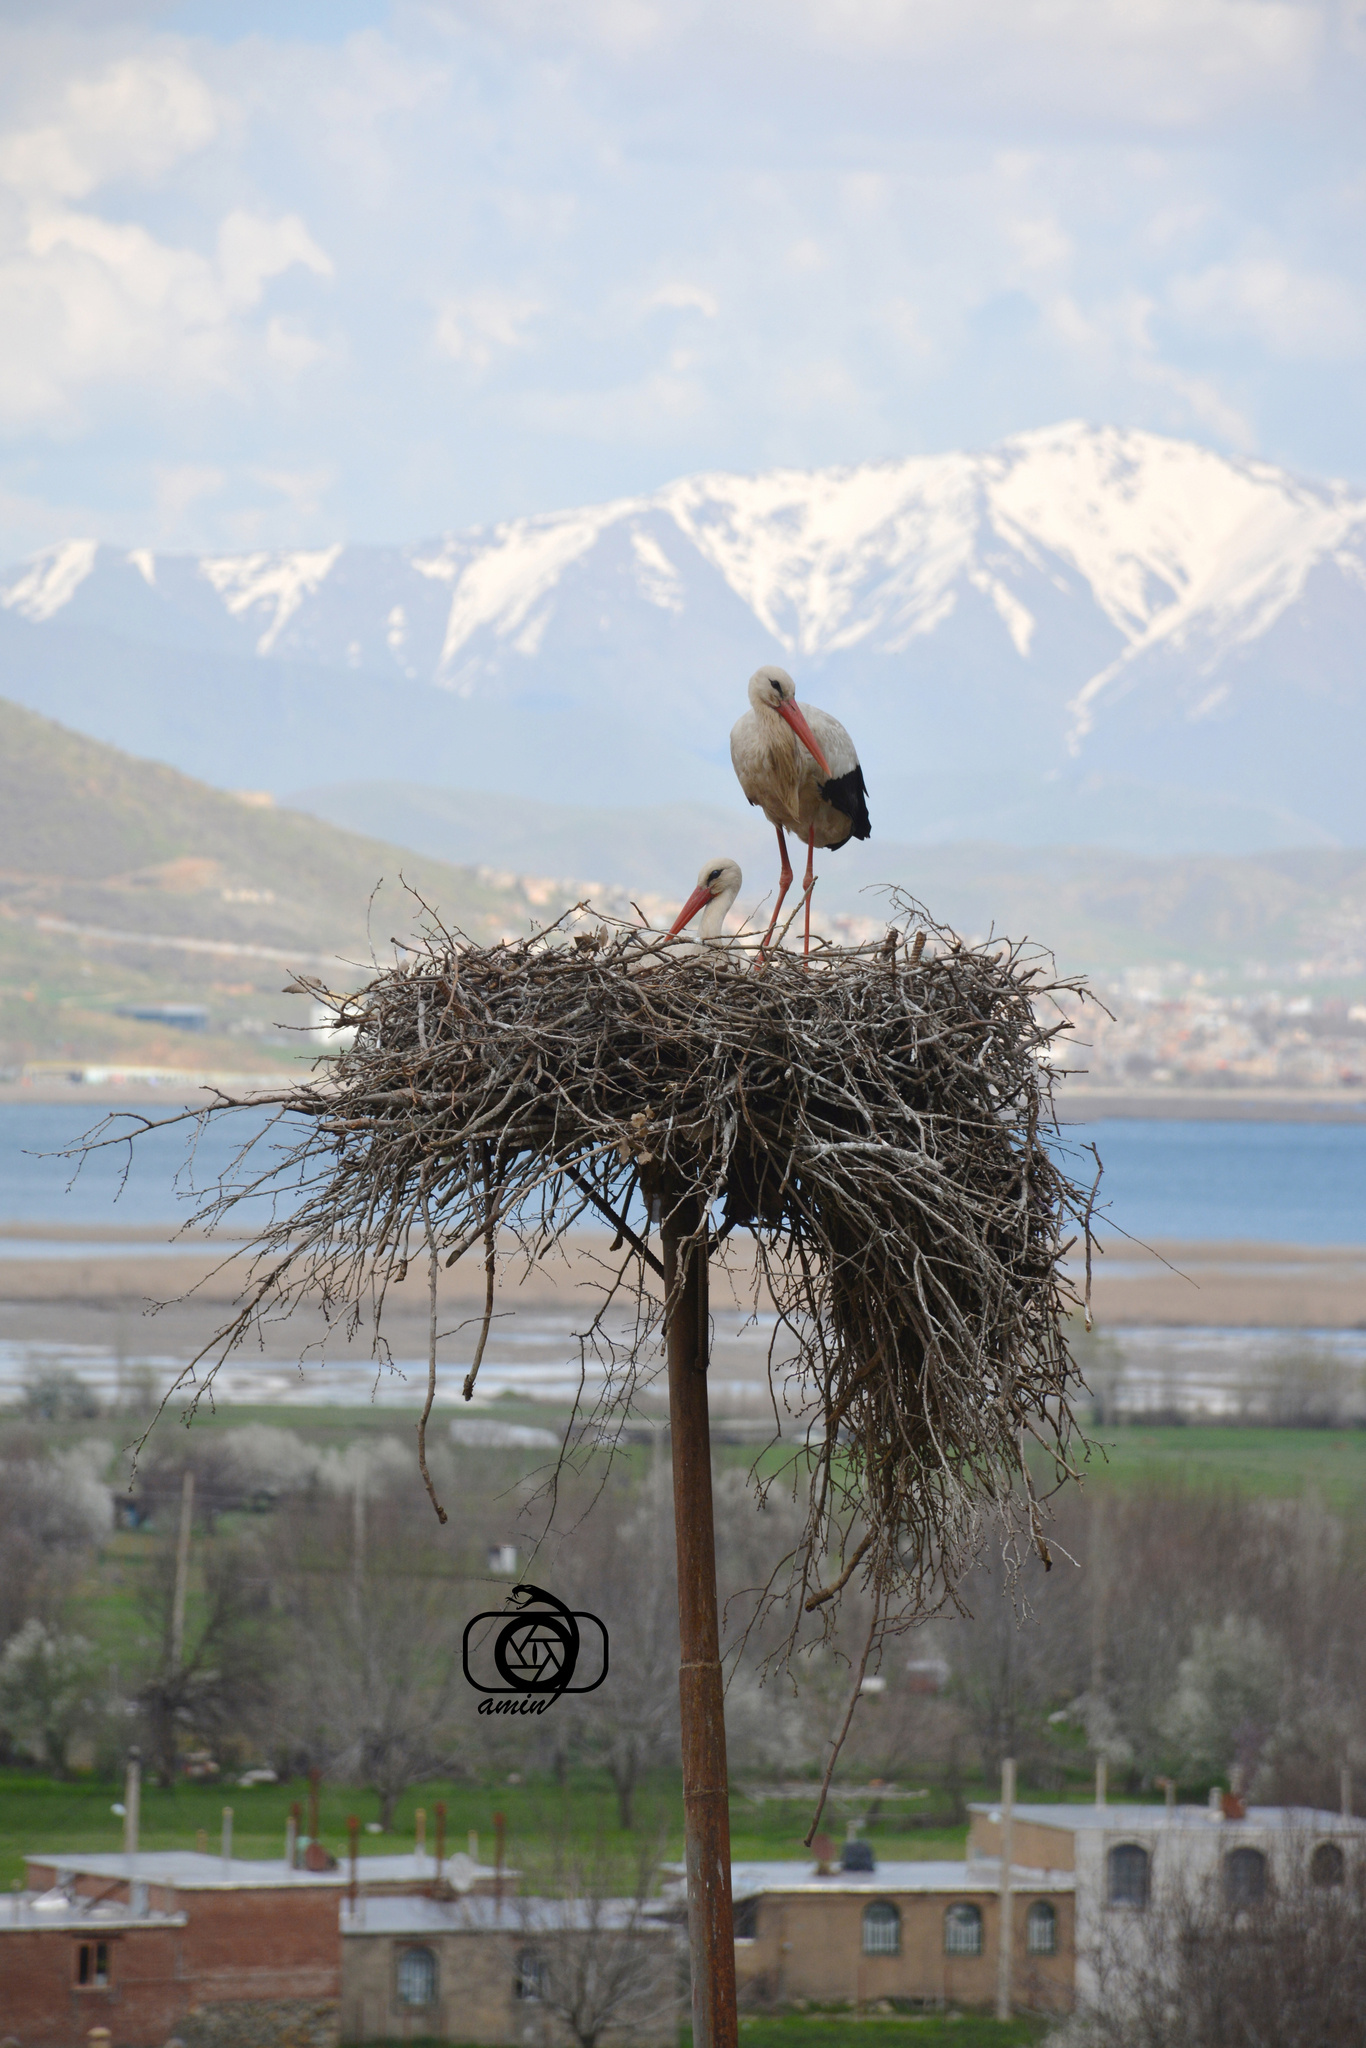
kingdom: Animalia
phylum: Chordata
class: Aves
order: Ciconiiformes
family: Ciconiidae
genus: Ciconia
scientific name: Ciconia ciconia
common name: White stork
